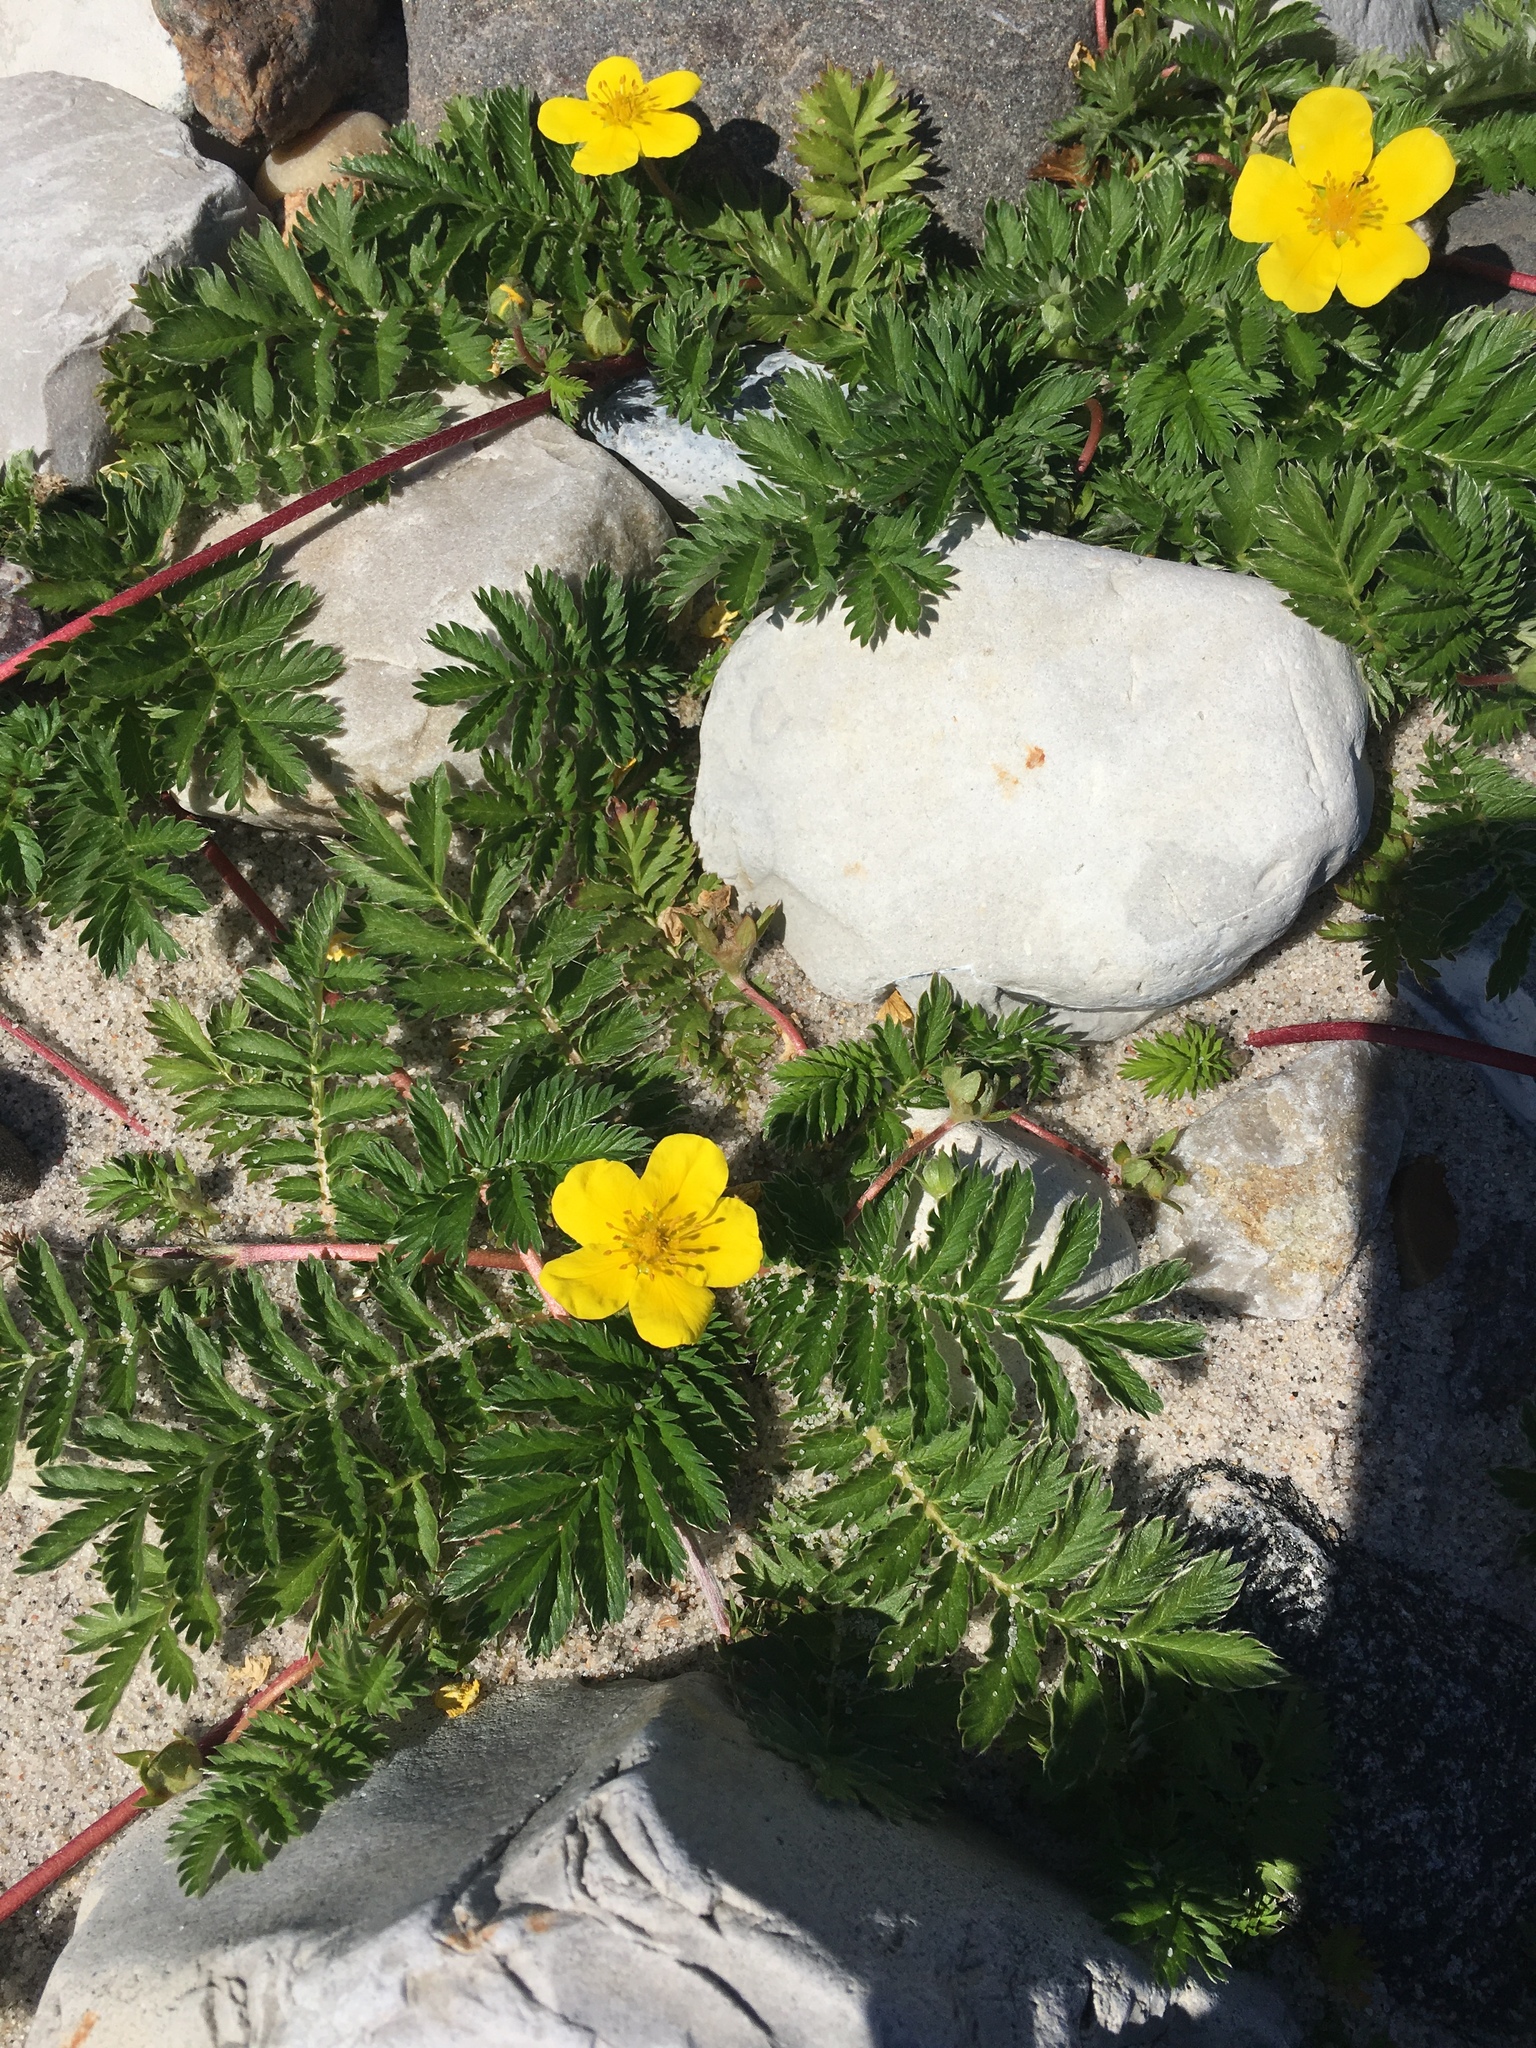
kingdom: Plantae
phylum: Tracheophyta
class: Magnoliopsida
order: Rosales
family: Rosaceae
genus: Argentina
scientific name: Argentina anserina
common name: Common silverweed
